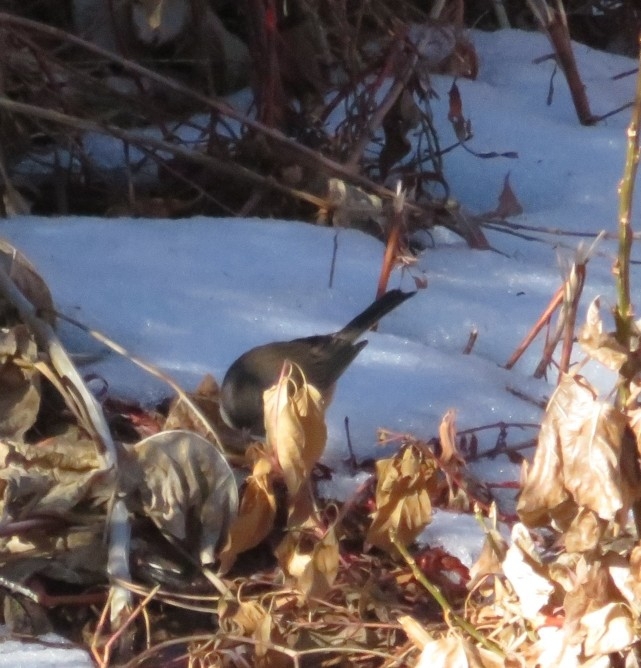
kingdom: Animalia
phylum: Chordata
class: Aves
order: Passeriformes
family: Passerellidae
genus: Junco
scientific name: Junco hyemalis
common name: Dark-eyed junco
